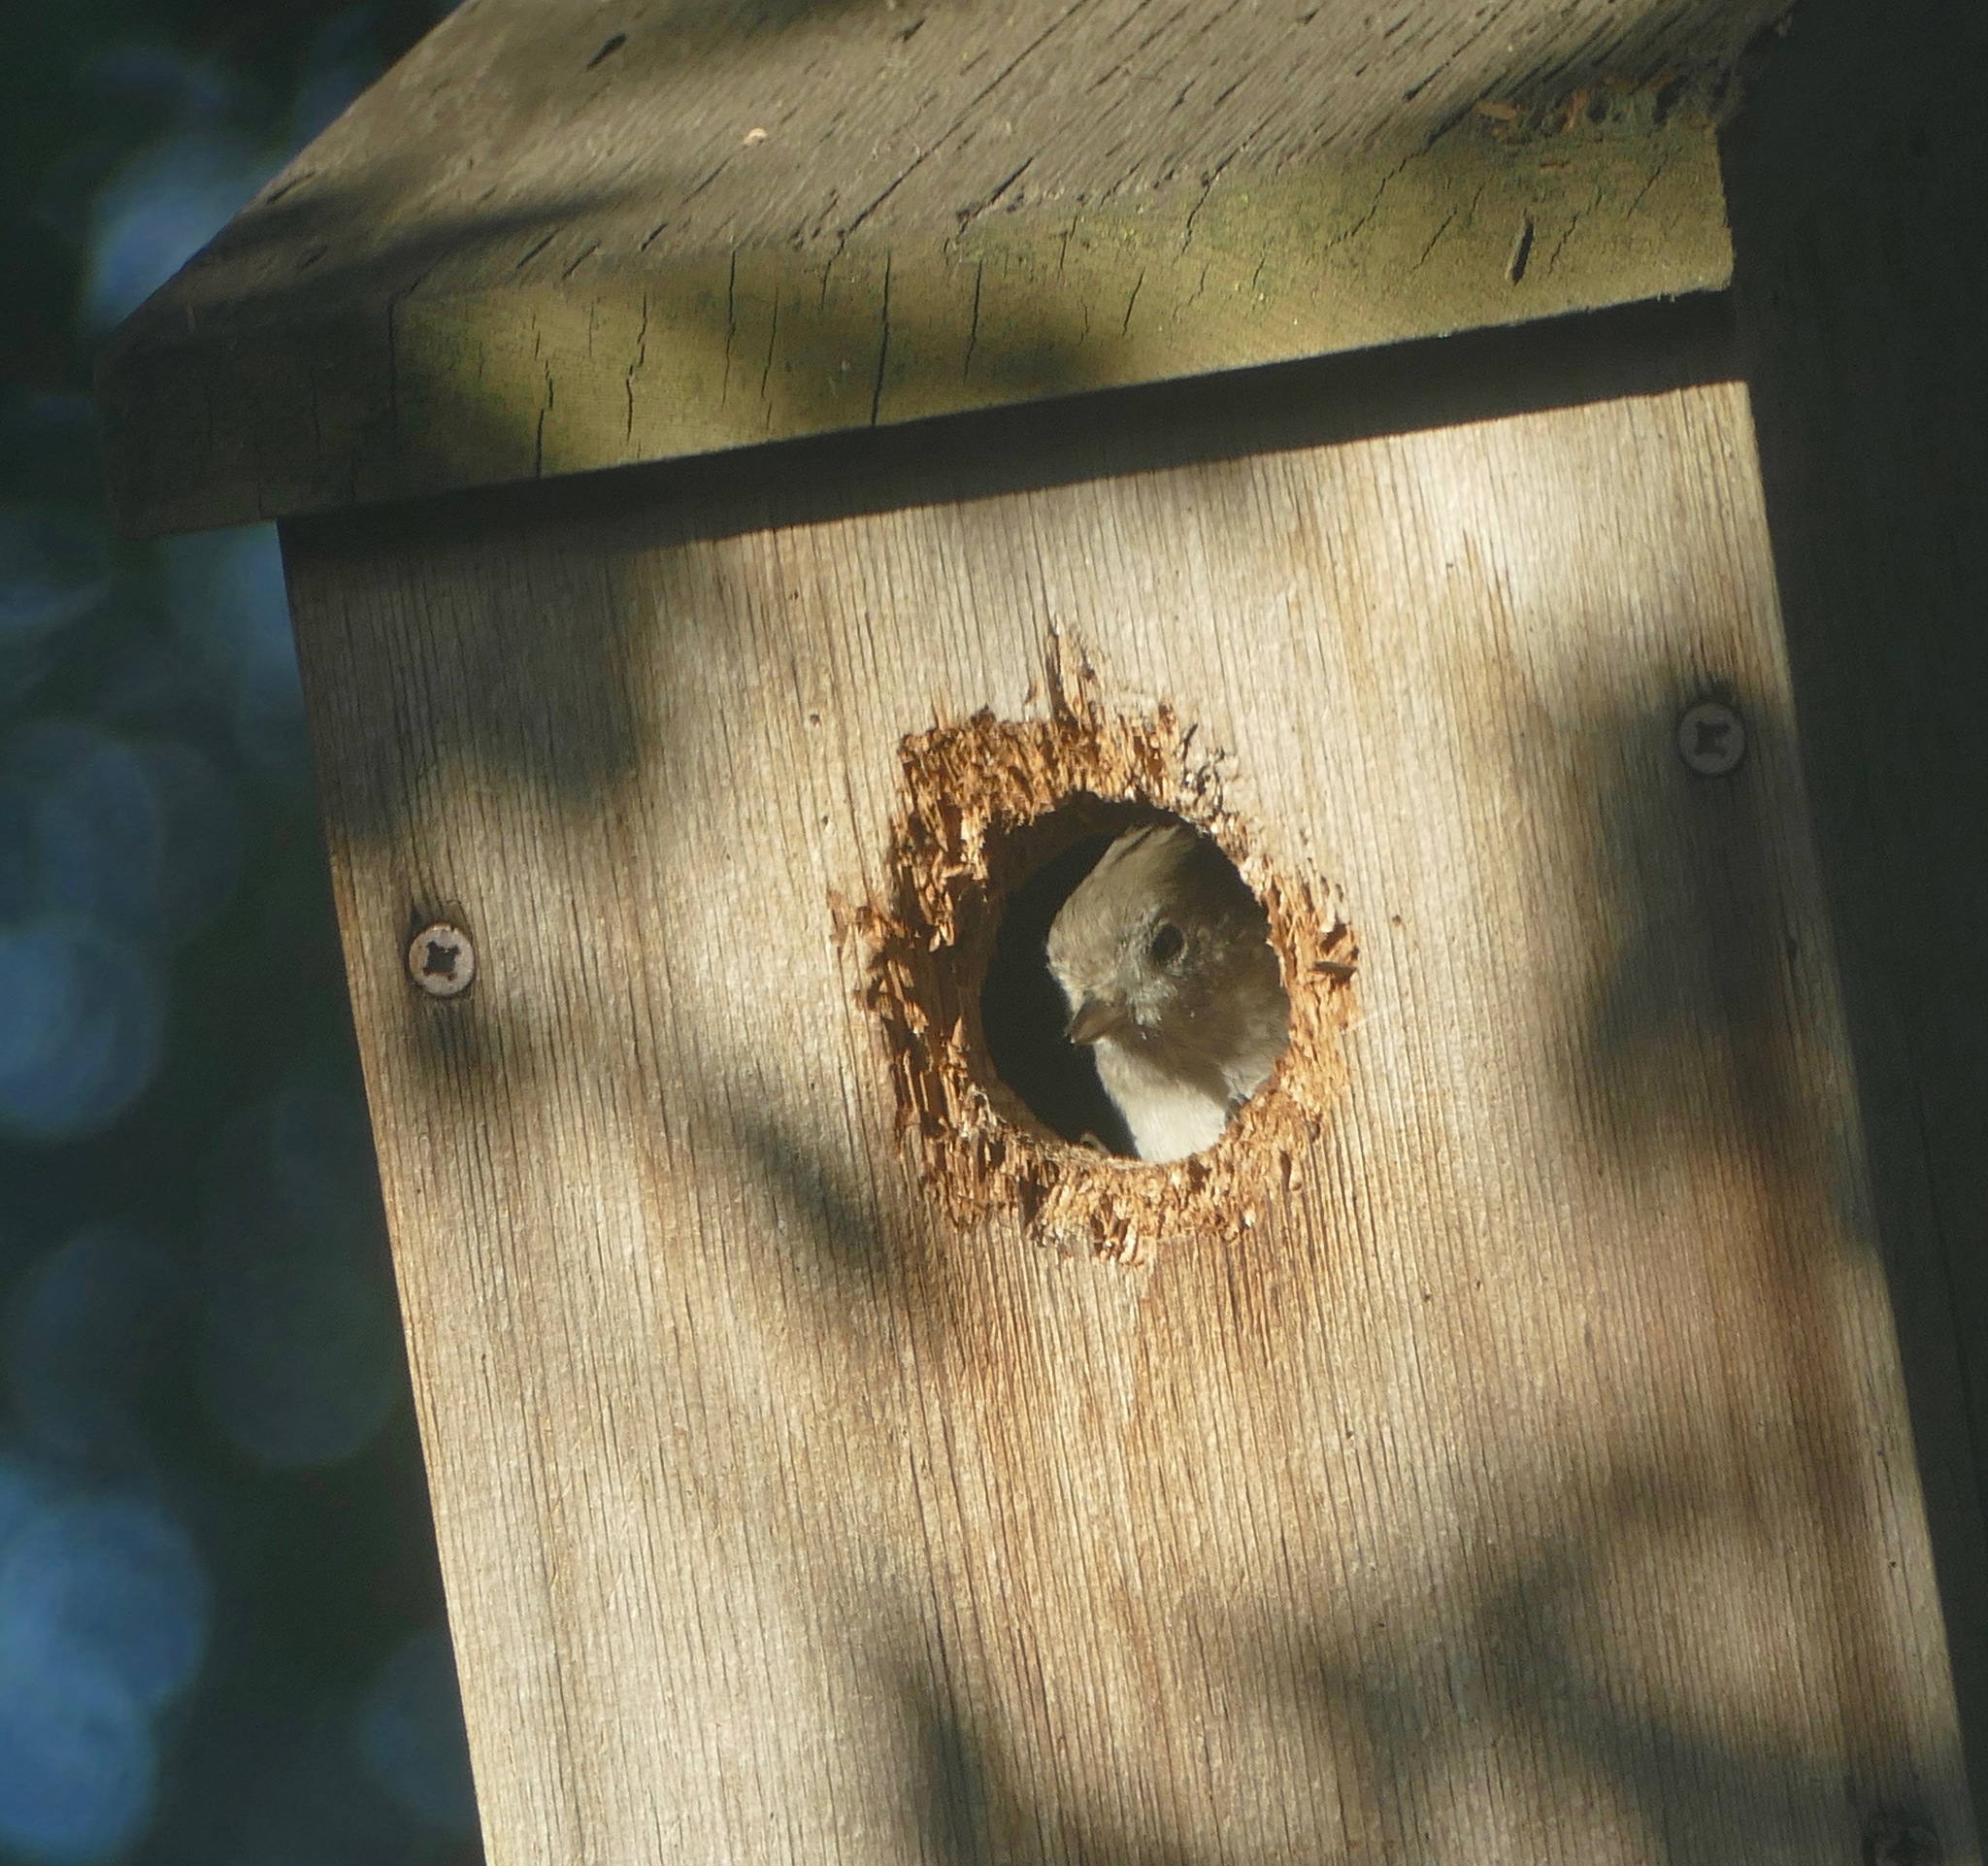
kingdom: Animalia
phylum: Chordata
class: Aves
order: Passeriformes
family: Paridae
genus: Baeolophus
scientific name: Baeolophus inornatus
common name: Oak titmouse
